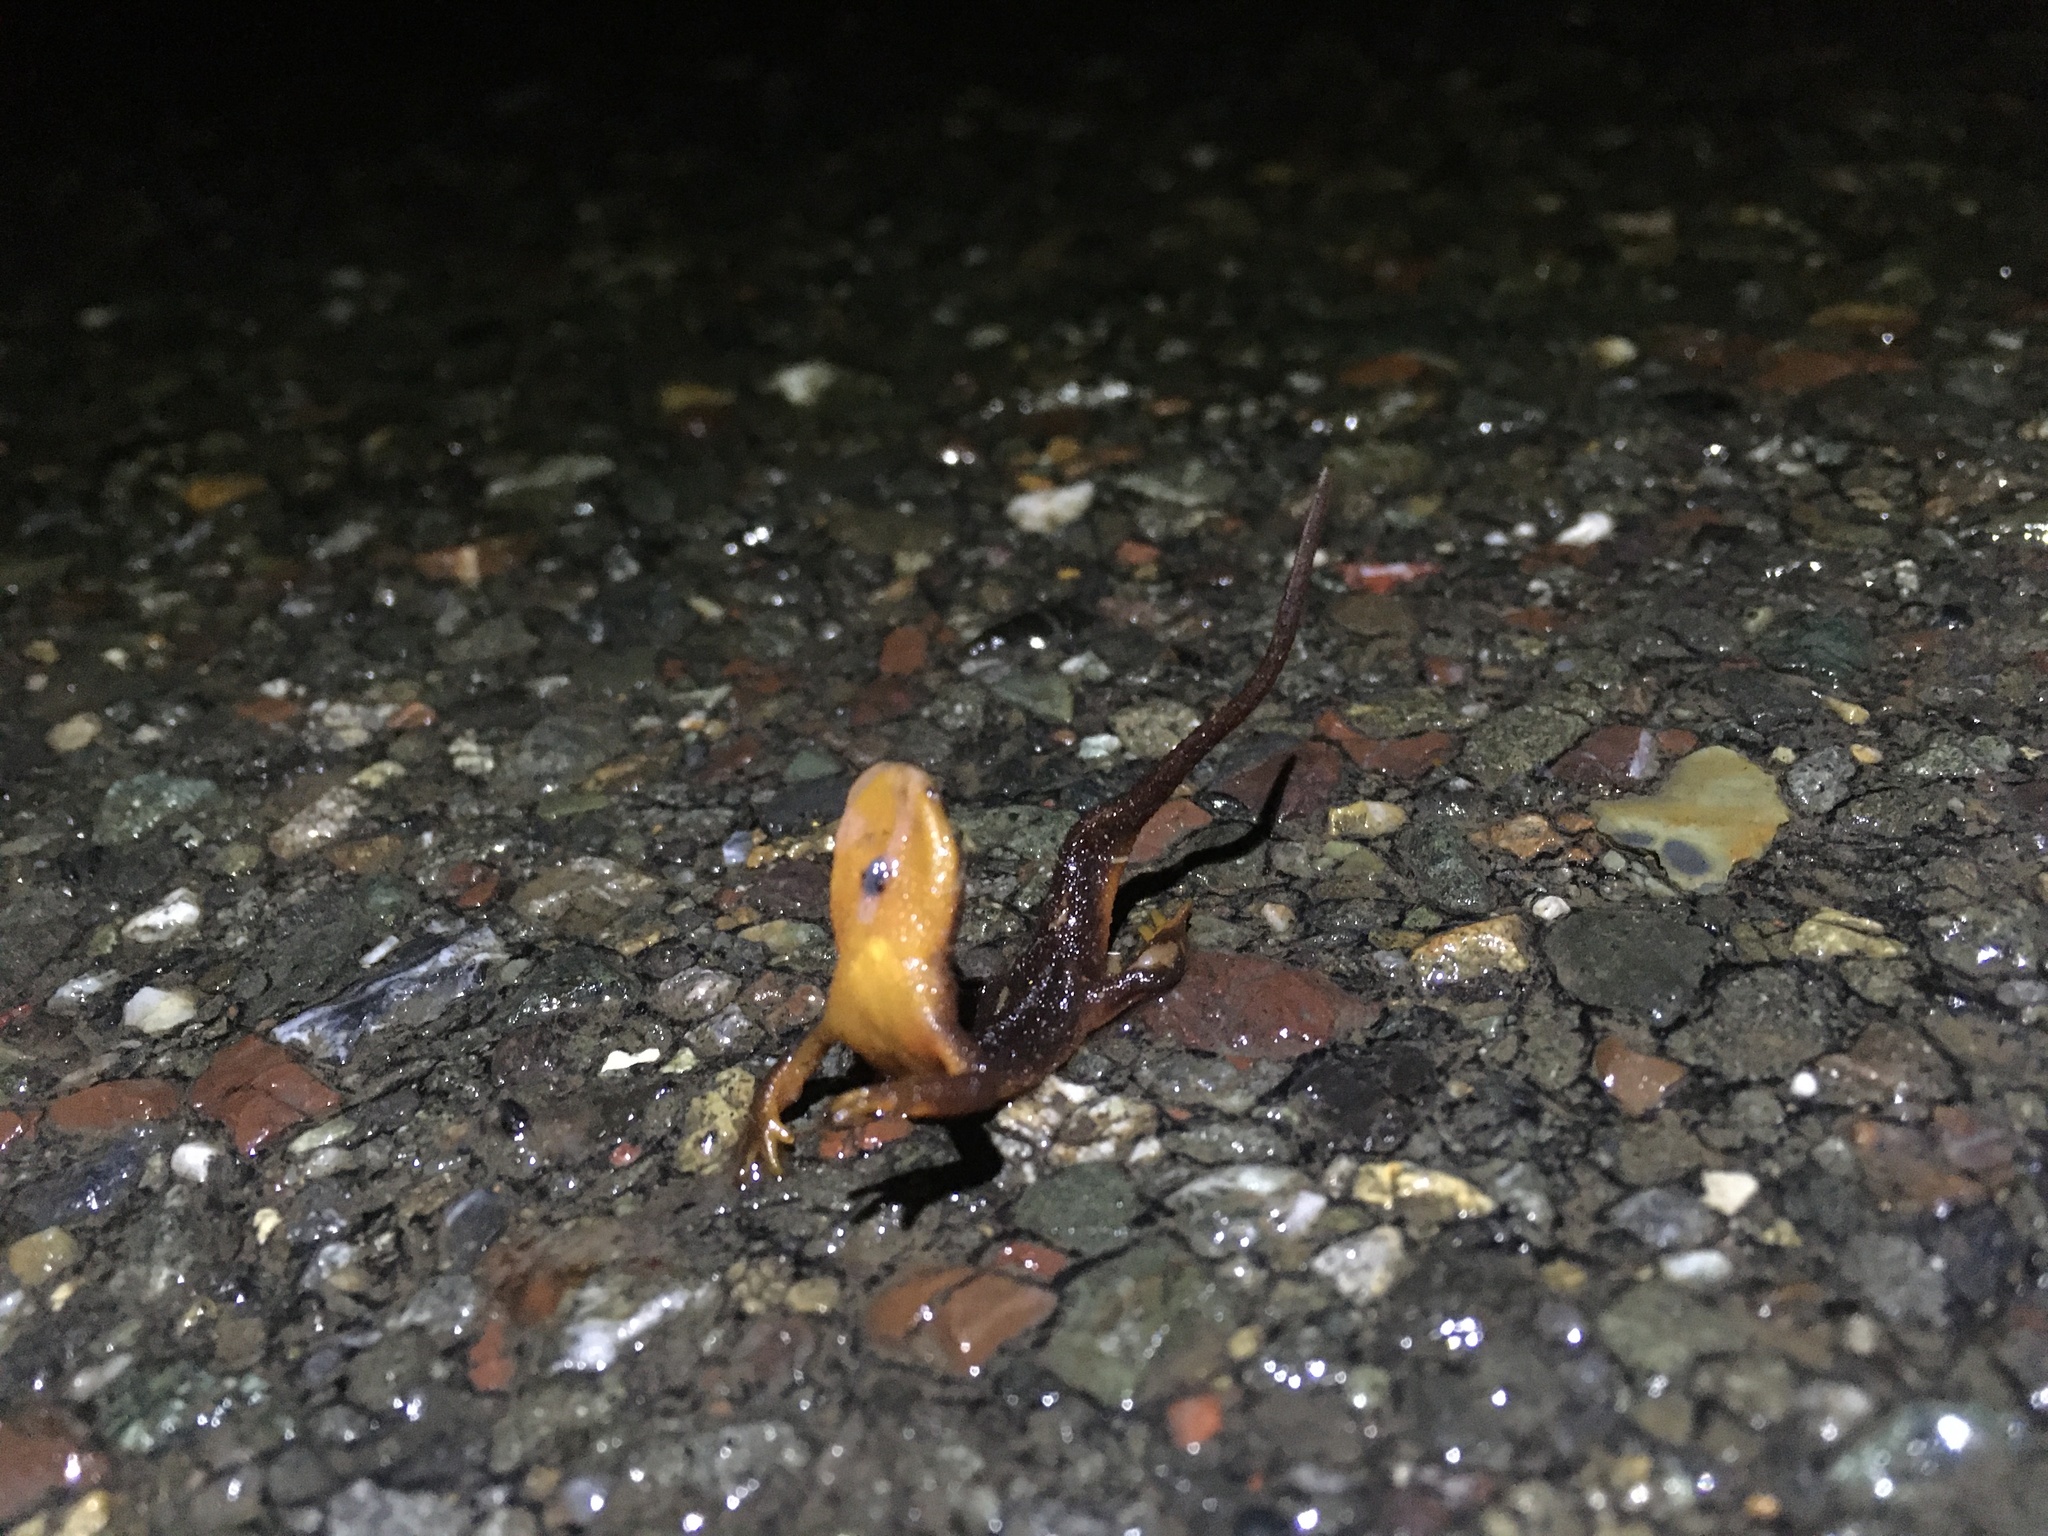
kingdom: Animalia
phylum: Chordata
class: Amphibia
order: Caudata
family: Salamandridae
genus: Taricha
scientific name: Taricha
